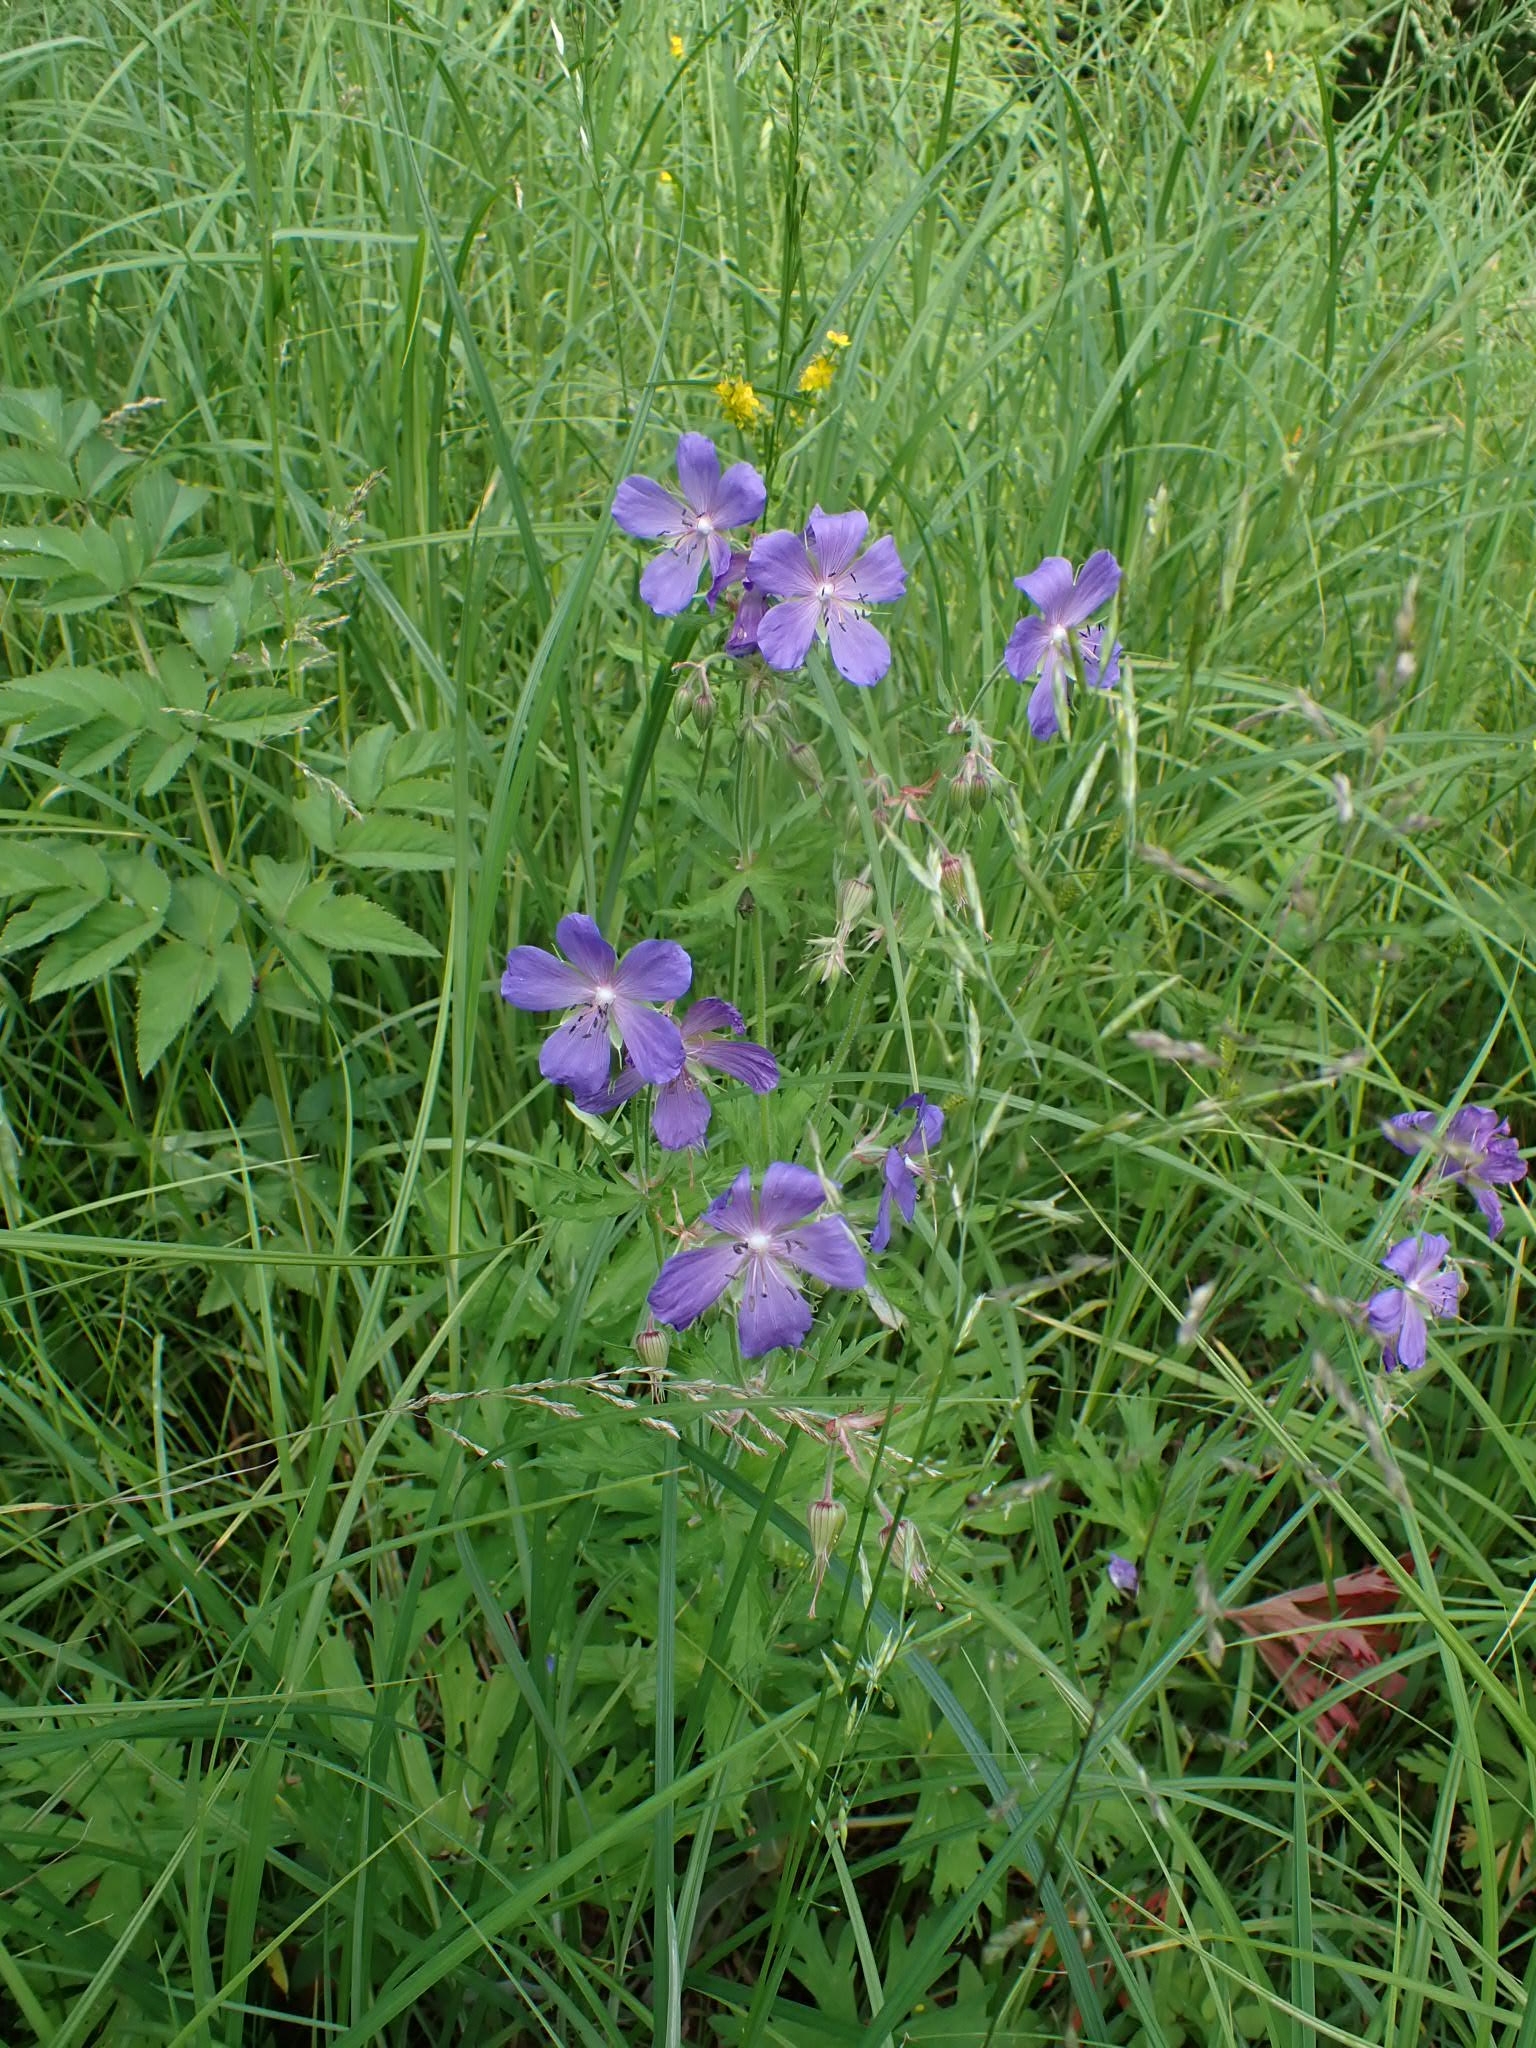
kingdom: Plantae
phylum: Tracheophyta
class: Magnoliopsida
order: Geraniales
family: Geraniaceae
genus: Geranium
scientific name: Geranium pratense
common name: Meadow crane's-bill
